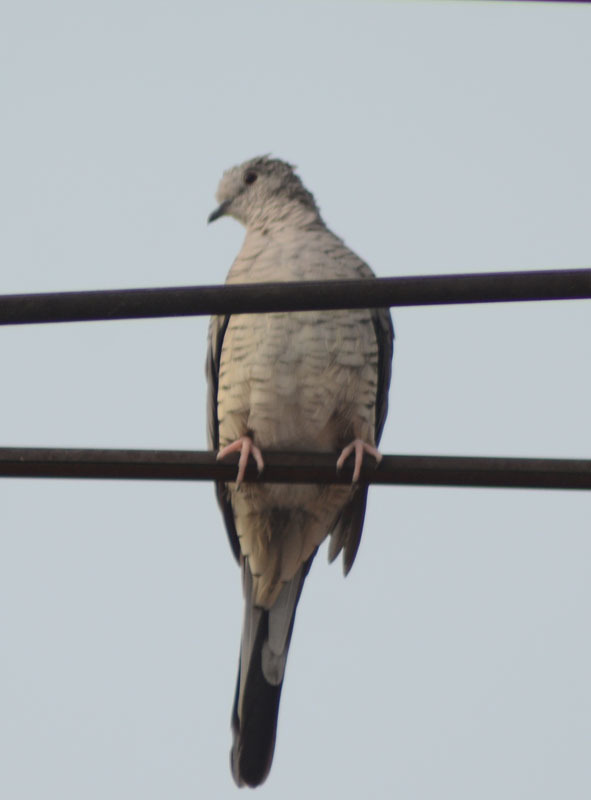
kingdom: Animalia
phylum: Chordata
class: Aves
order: Columbiformes
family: Columbidae
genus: Columbina
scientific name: Columbina inca
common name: Inca dove
